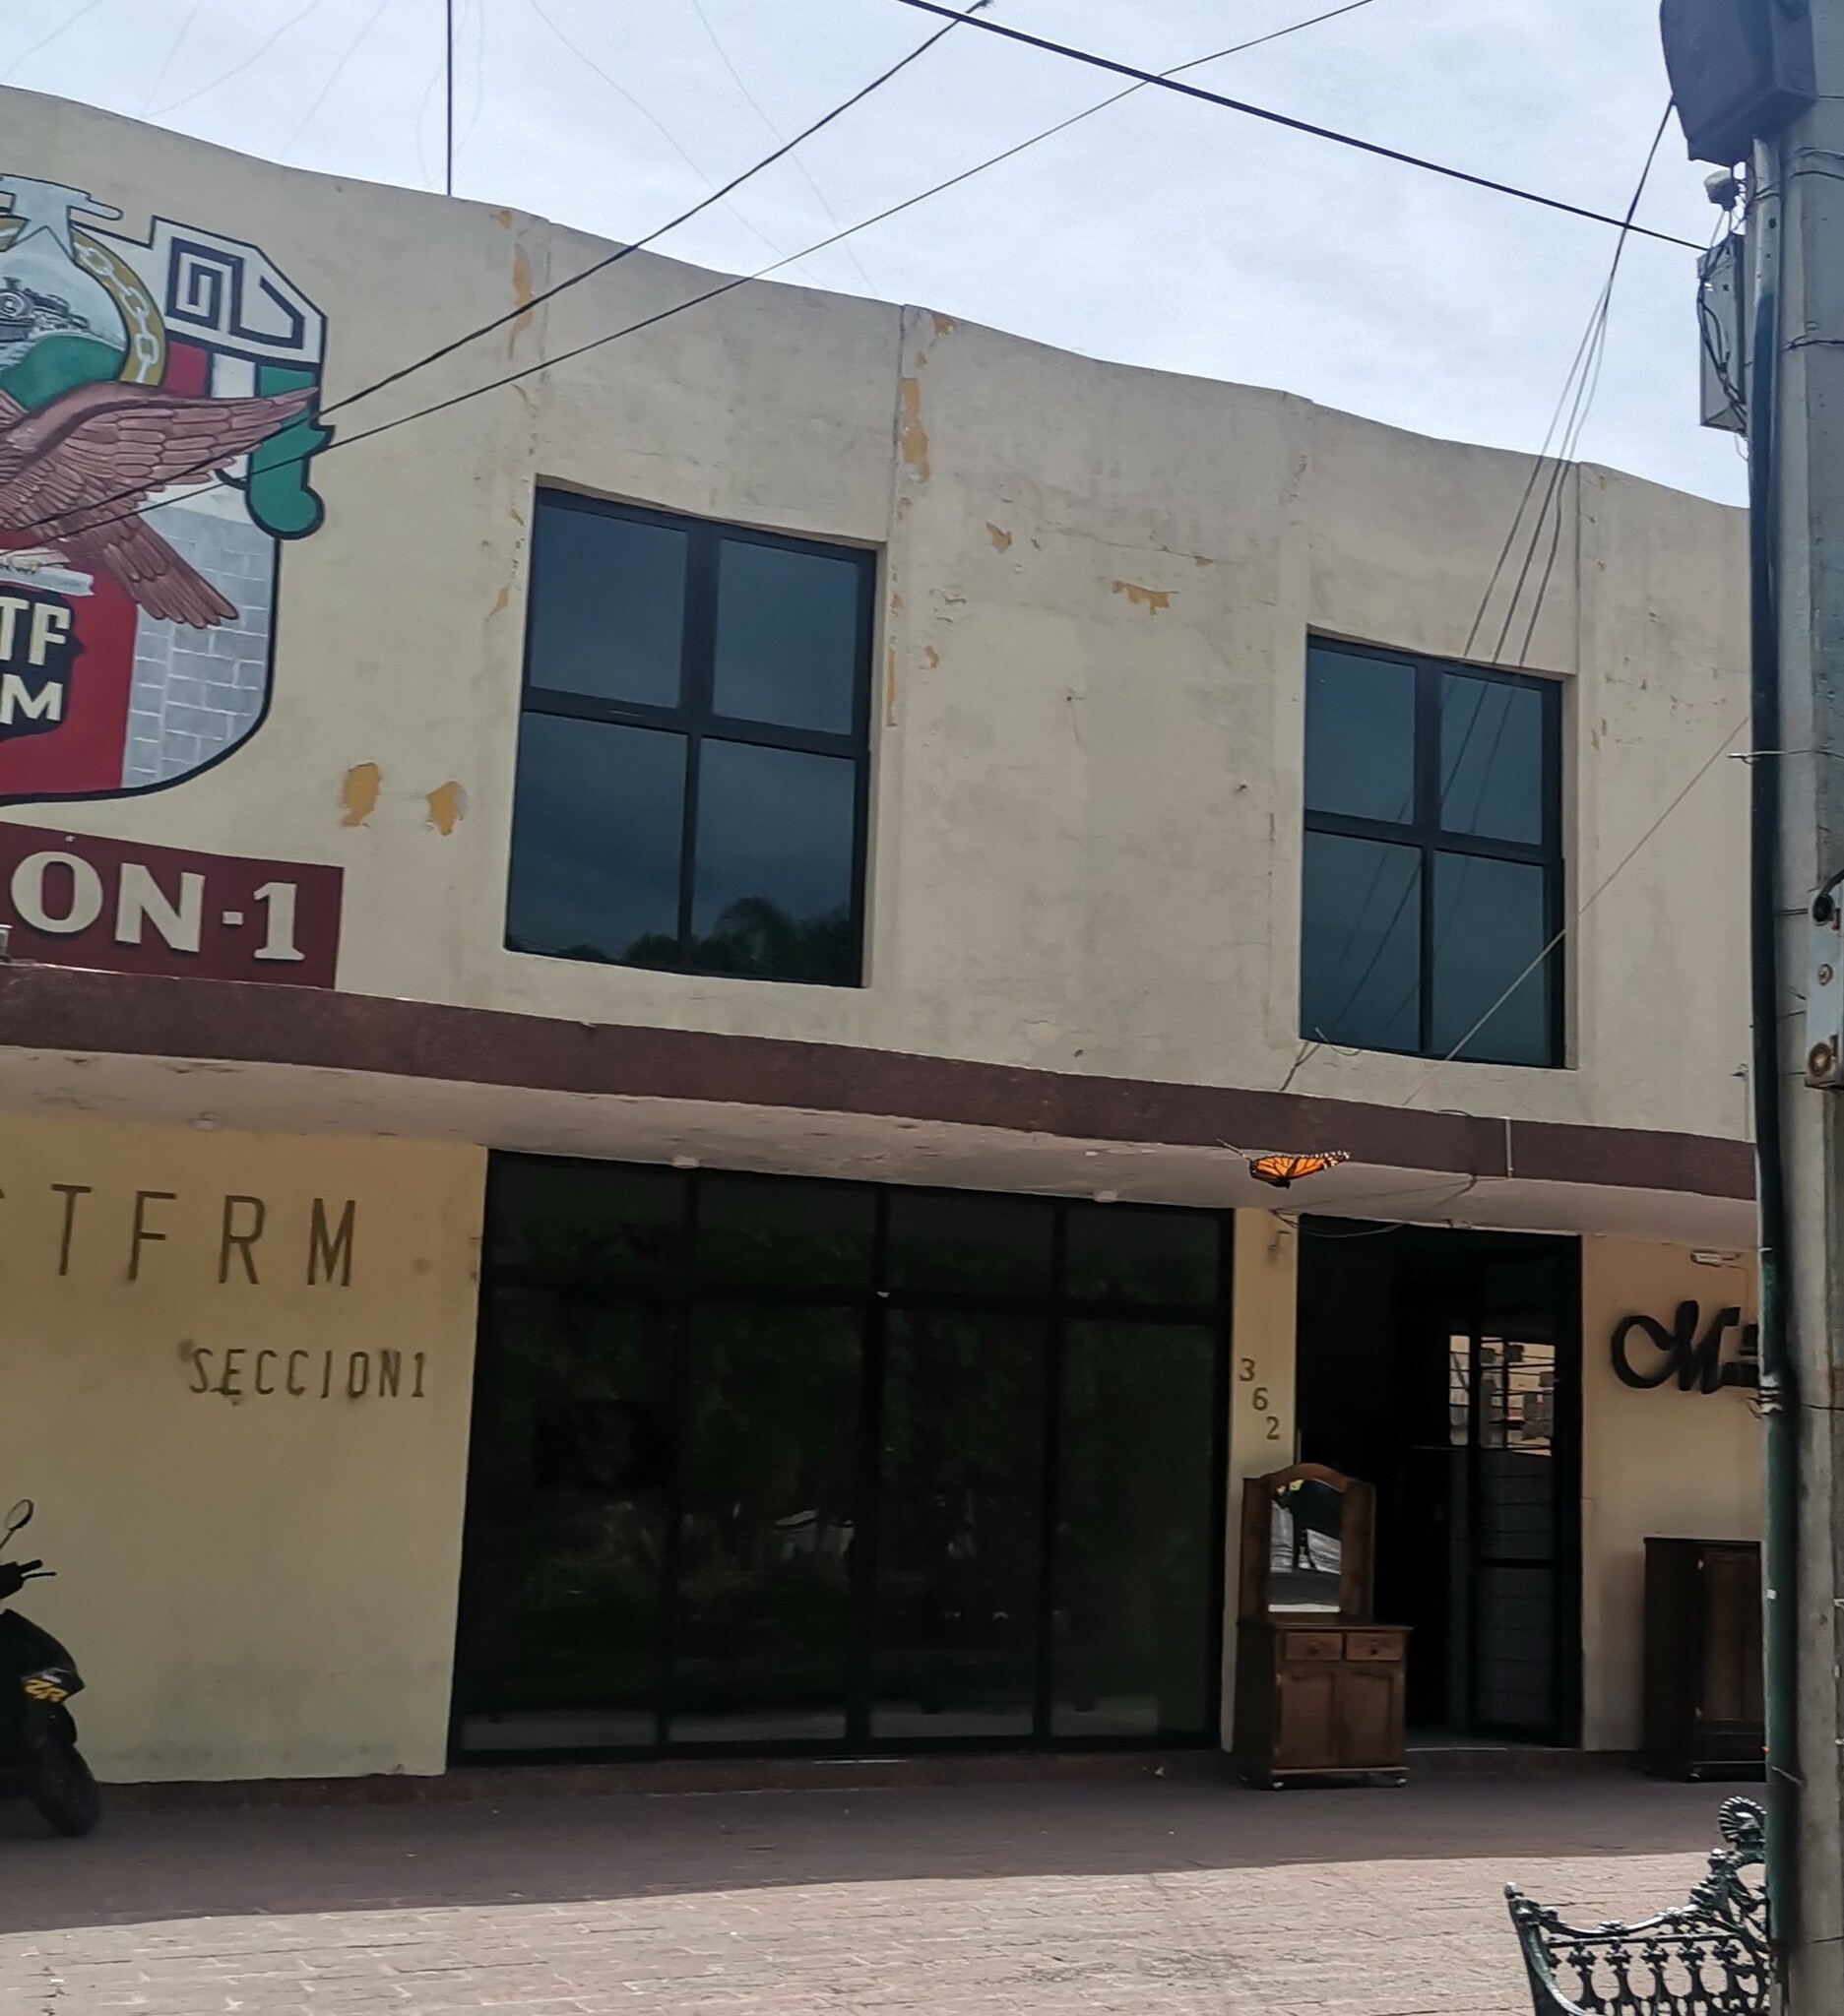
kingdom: Animalia
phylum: Arthropoda
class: Insecta
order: Lepidoptera
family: Nymphalidae
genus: Danaus
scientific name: Danaus plexippus
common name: Monarch
